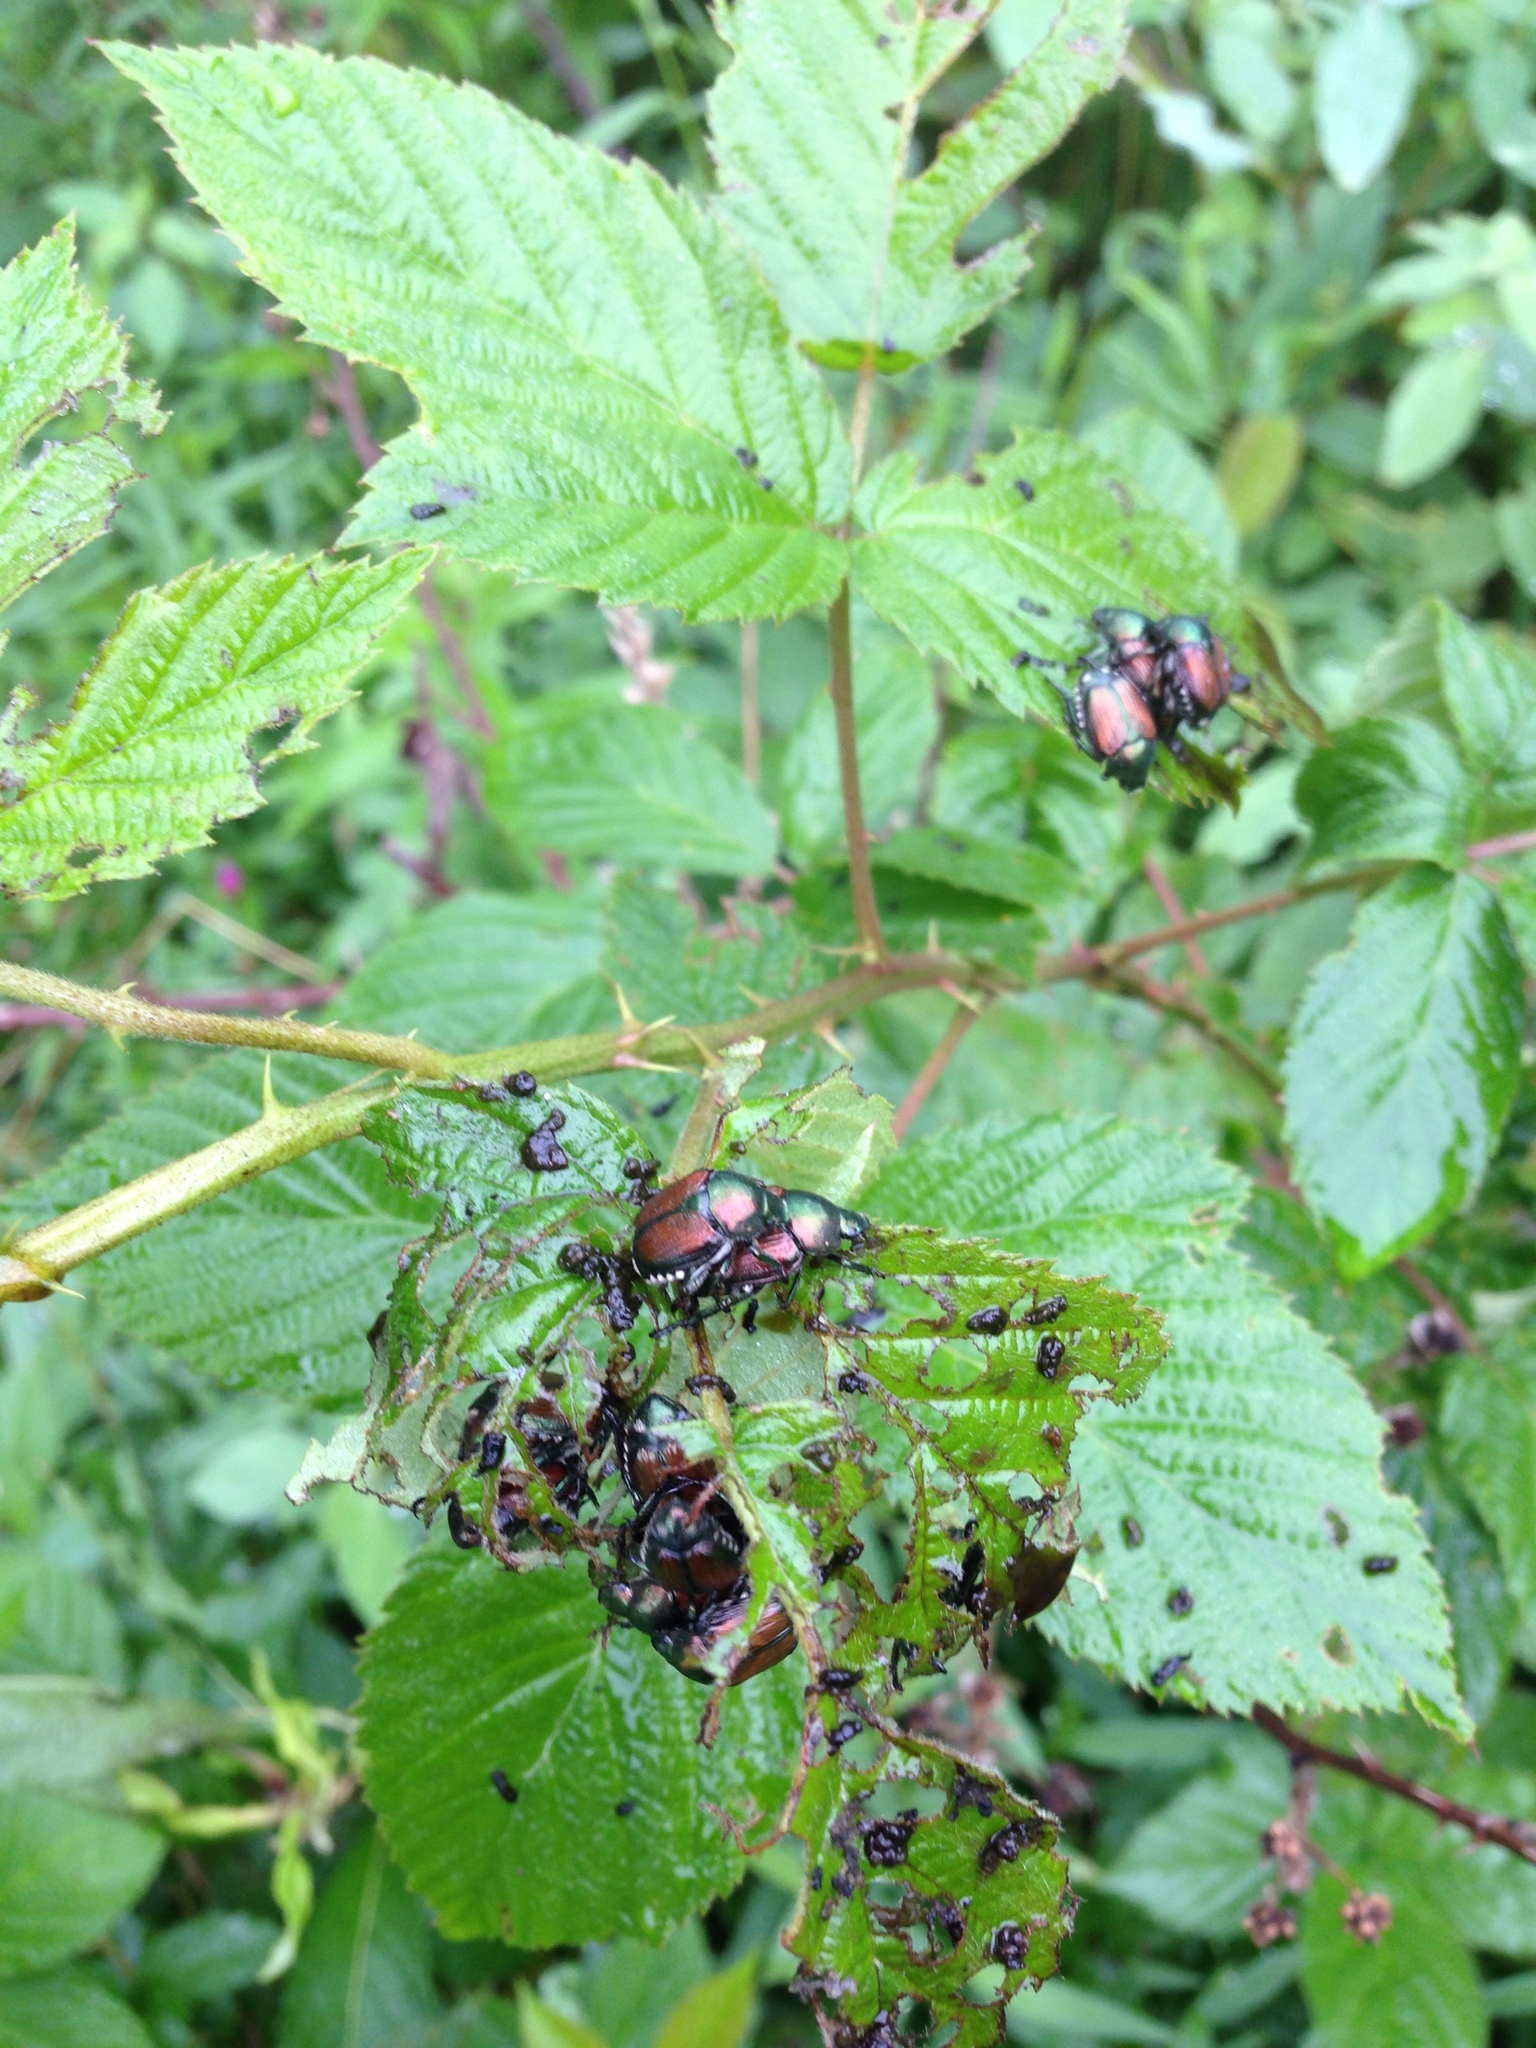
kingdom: Animalia
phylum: Arthropoda
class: Insecta
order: Coleoptera
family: Scarabaeidae
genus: Popillia
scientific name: Popillia japonica
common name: Japanese beetle
